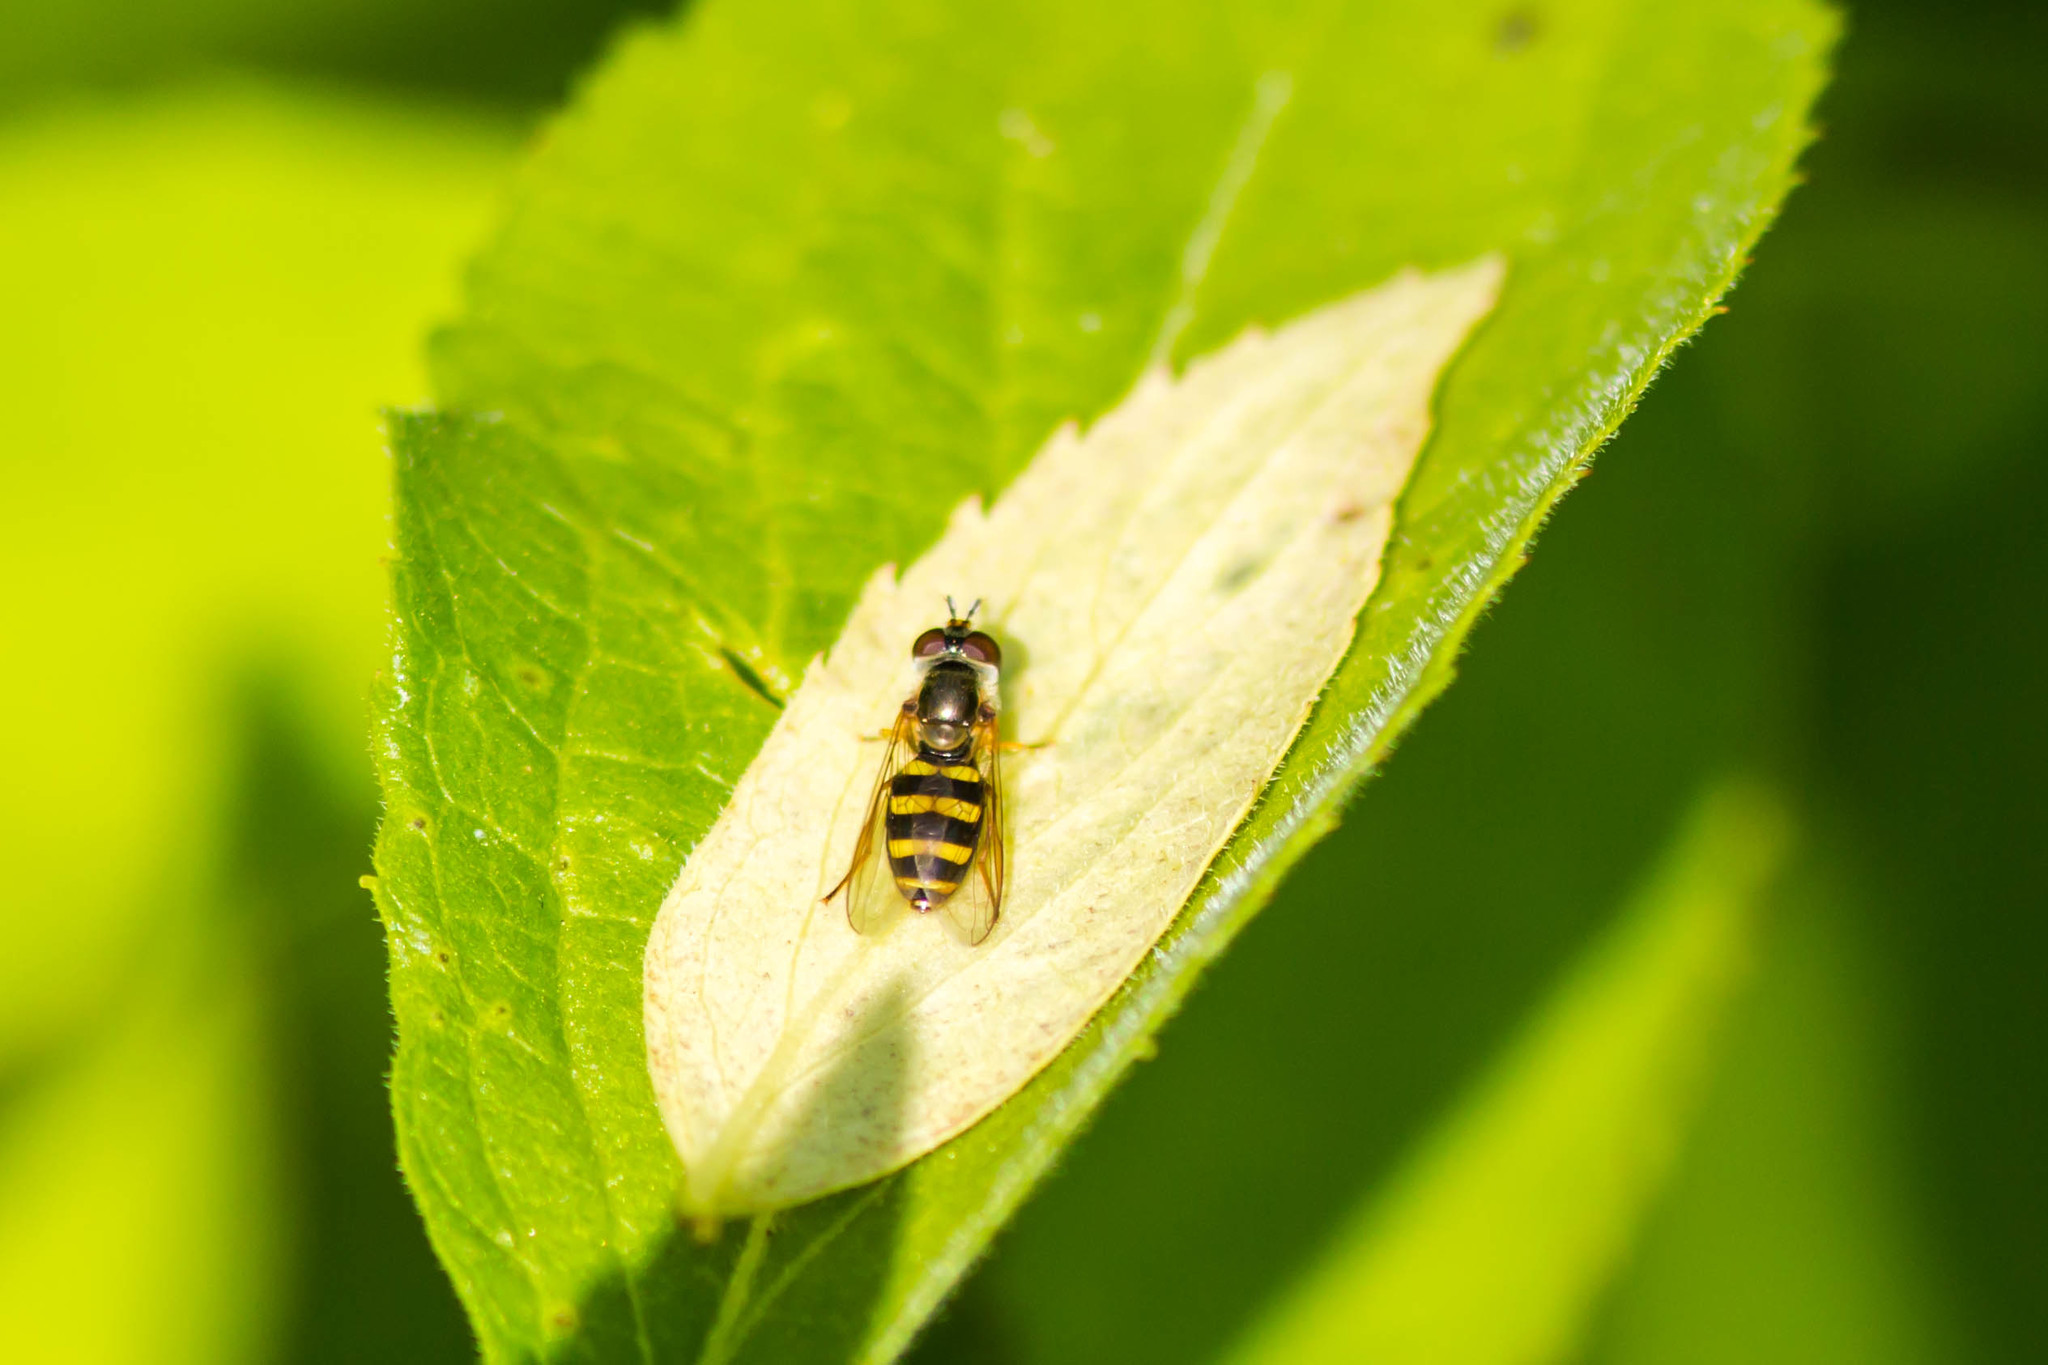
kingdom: Animalia
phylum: Arthropoda
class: Insecta
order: Diptera
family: Syrphidae
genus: Eupeodes
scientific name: Eupeodes
